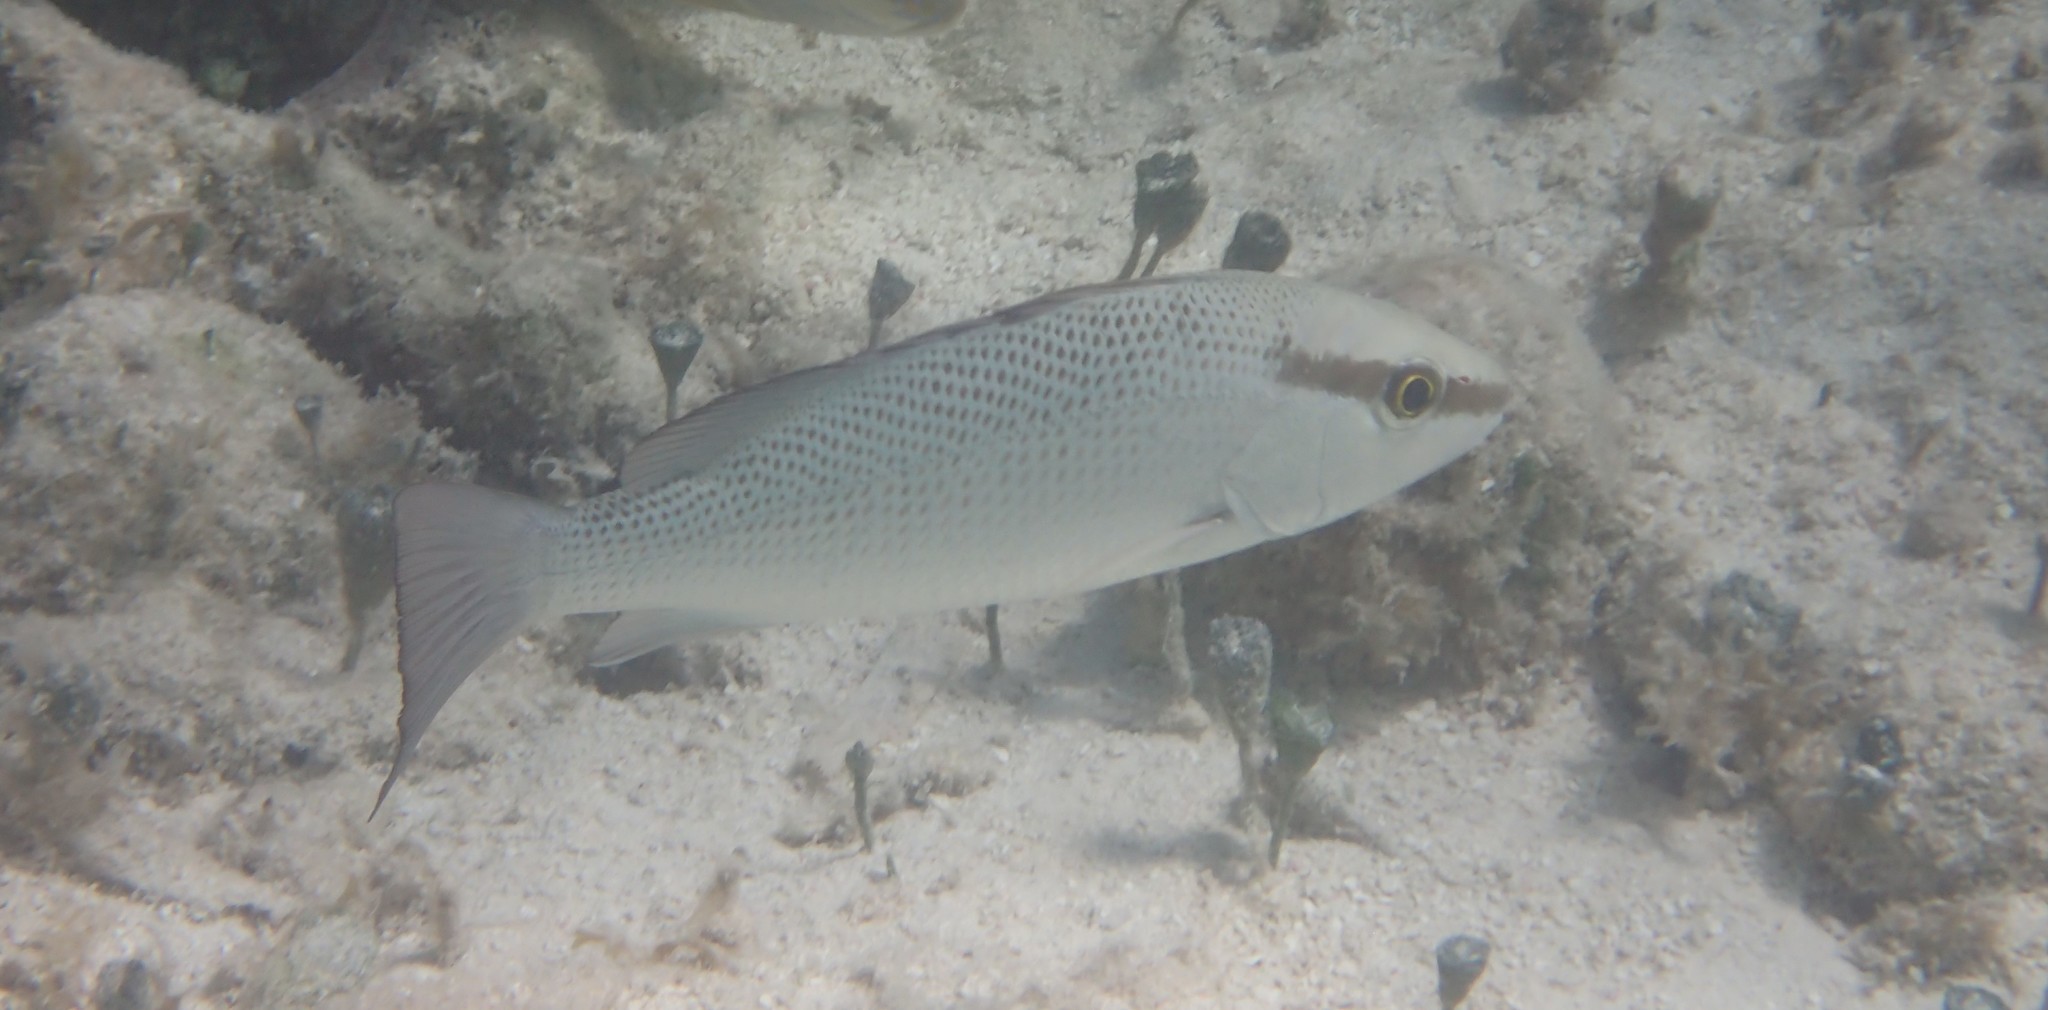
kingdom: Animalia
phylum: Chordata
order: Perciformes
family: Lutjanidae
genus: Lutjanus
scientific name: Lutjanus griseus
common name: Gray snapper
